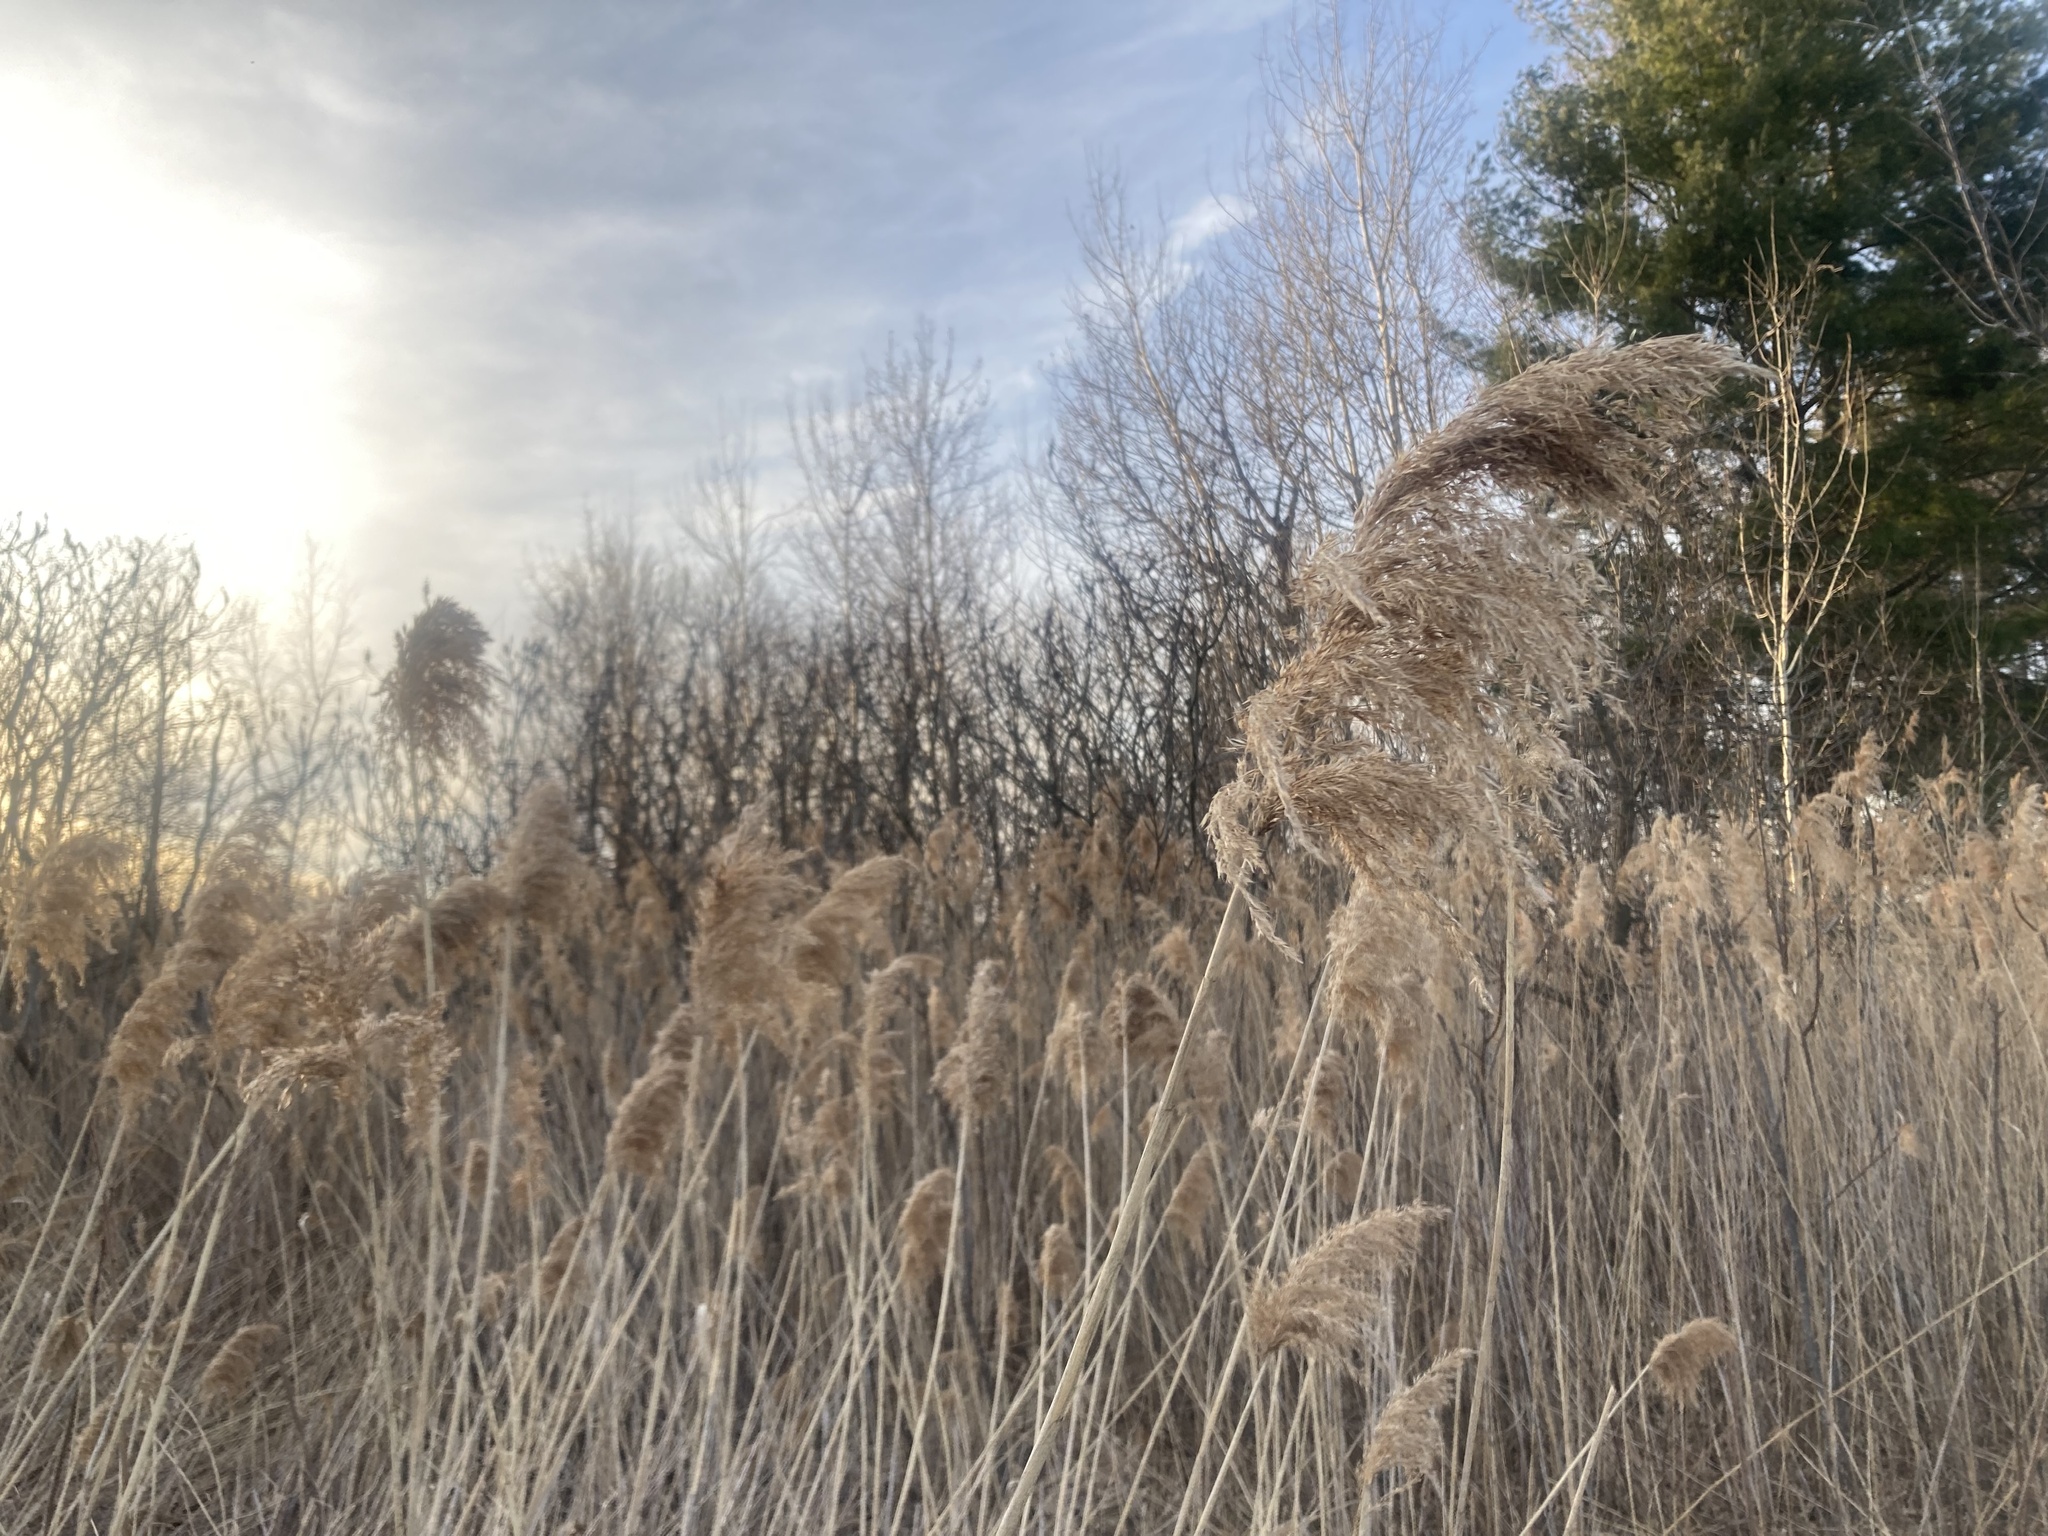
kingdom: Plantae
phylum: Tracheophyta
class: Liliopsida
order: Poales
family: Poaceae
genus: Phragmites
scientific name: Phragmites australis
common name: Common reed
